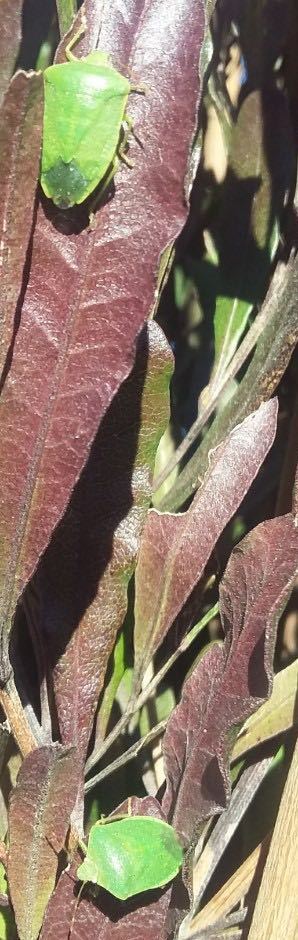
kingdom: Animalia
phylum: Arthropoda
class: Insecta
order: Hemiptera
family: Pentatomidae
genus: Nezara
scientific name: Nezara viridula
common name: Southern green stink bug
